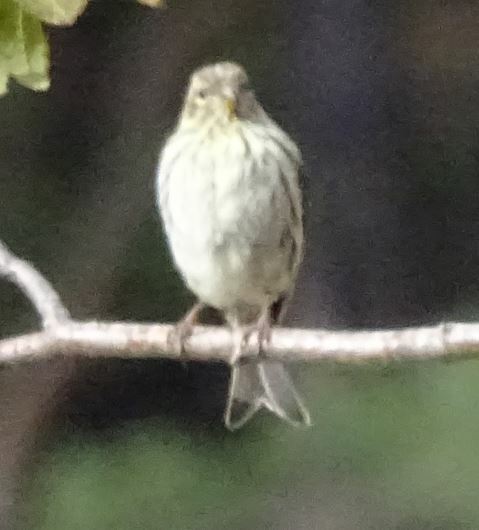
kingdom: Animalia
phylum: Chordata
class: Aves
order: Passeriformes
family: Fringillidae
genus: Serinus
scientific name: Serinus serinus
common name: European serin
